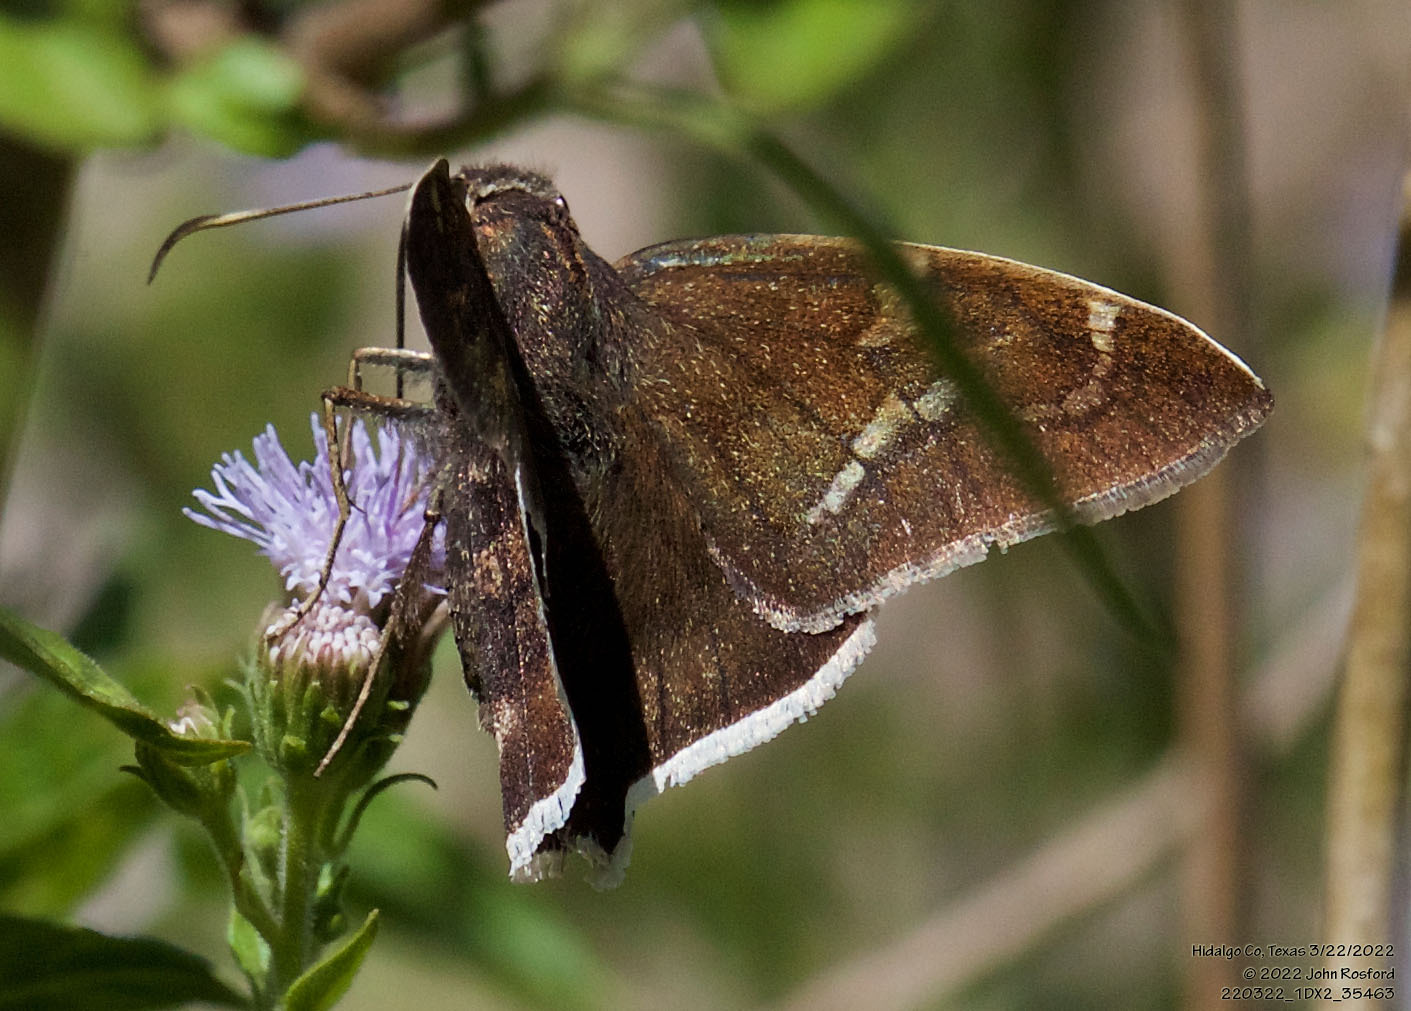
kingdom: Animalia
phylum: Arthropoda
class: Insecta
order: Lepidoptera
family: Hesperiidae
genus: Achalarus
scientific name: Achalarus Murgaria albociliatus
